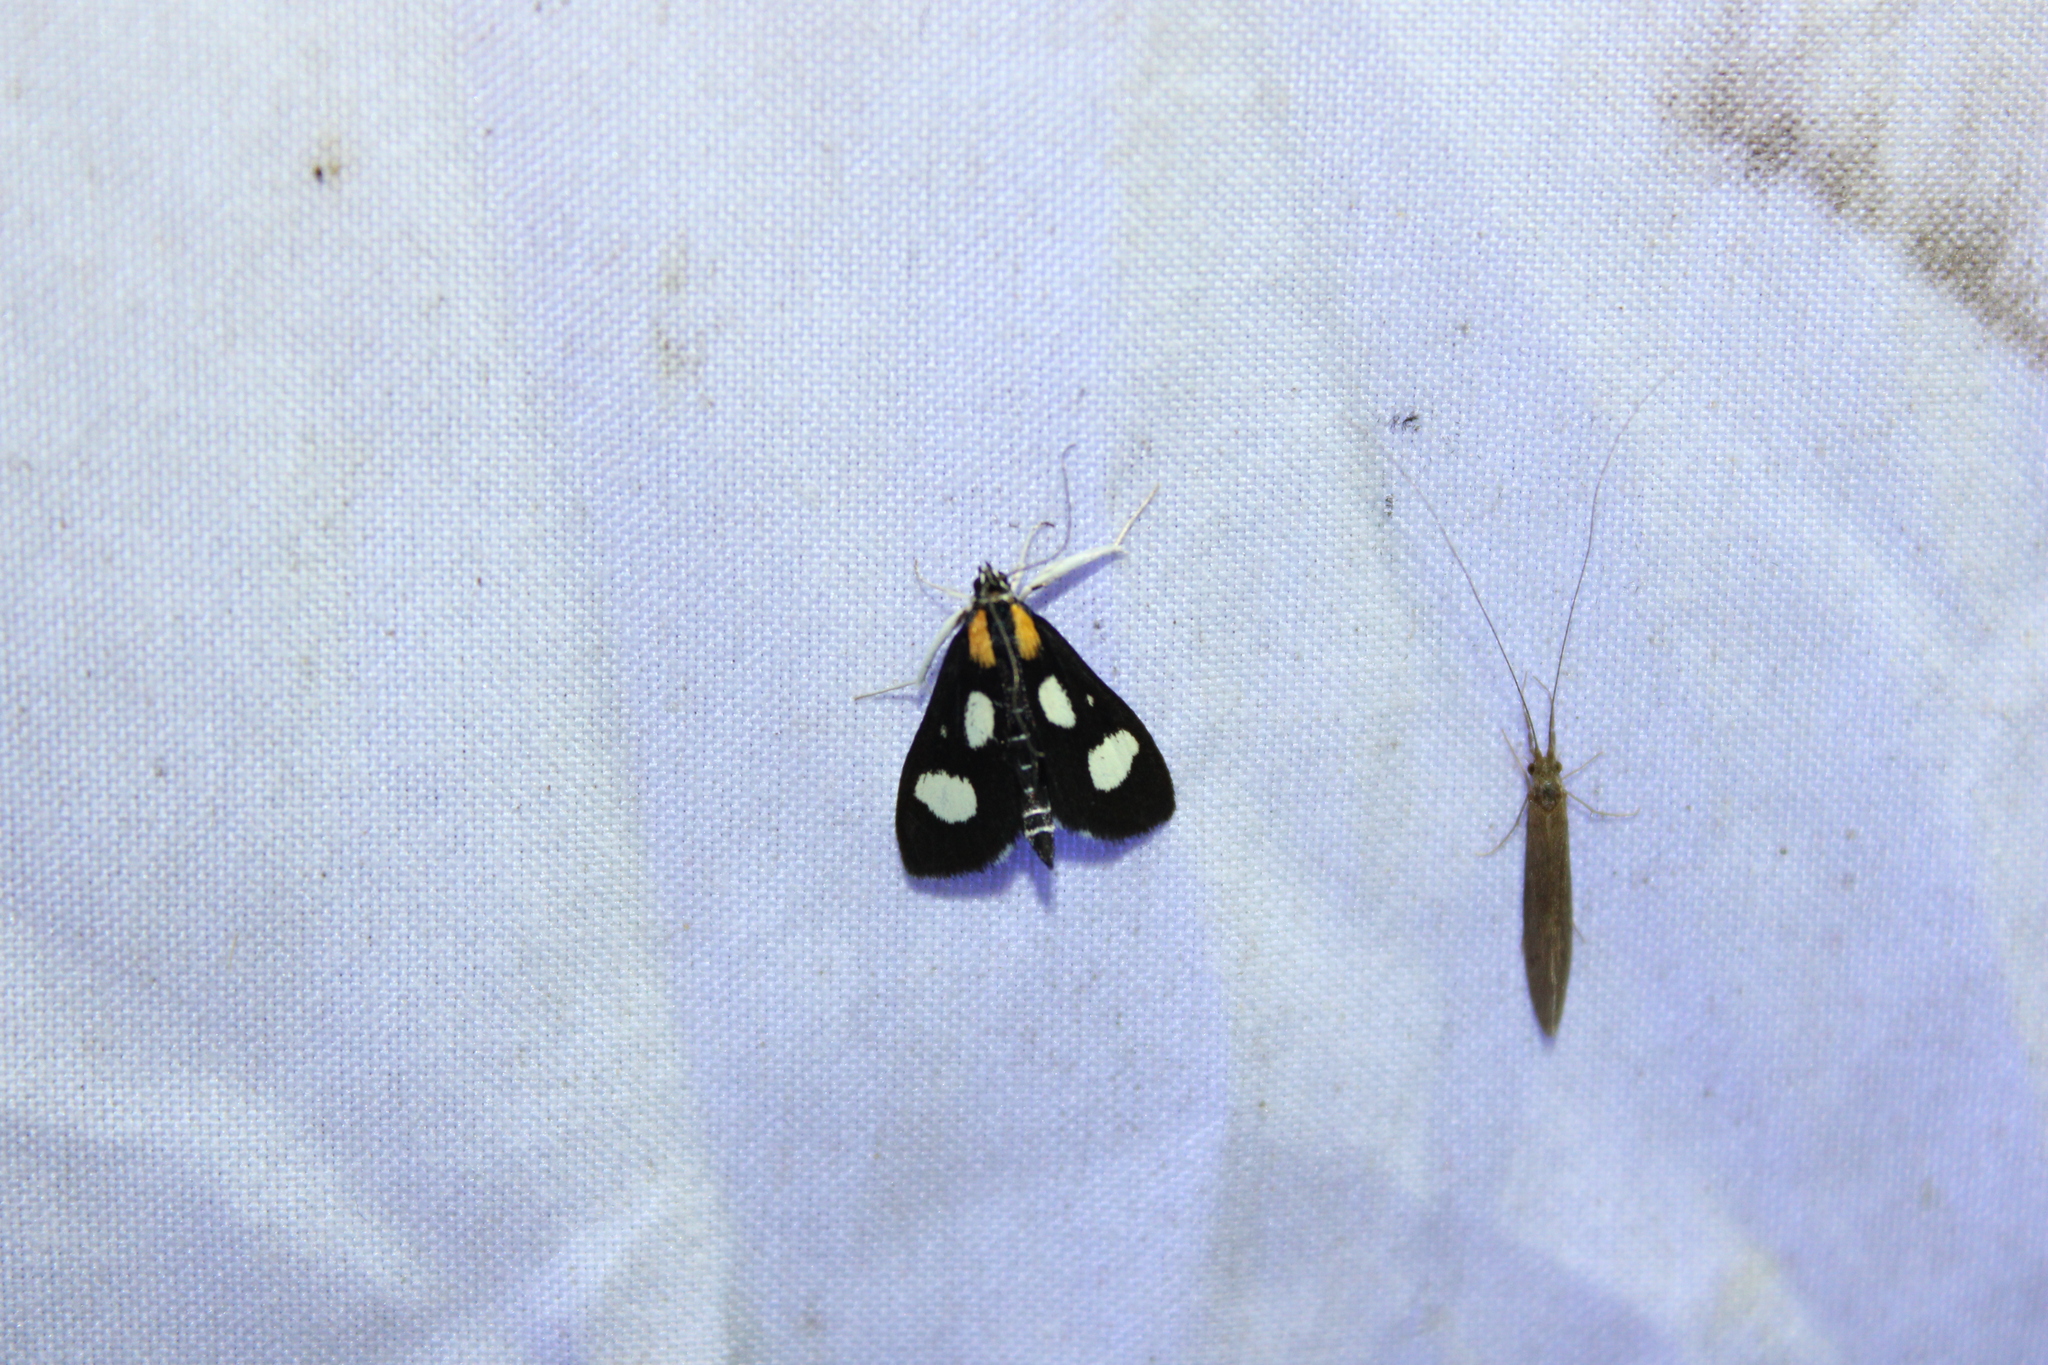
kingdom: Animalia
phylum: Arthropoda
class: Insecta
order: Lepidoptera
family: Crambidae
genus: Anania
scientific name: Anania funebris
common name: White-spotted sable moth
